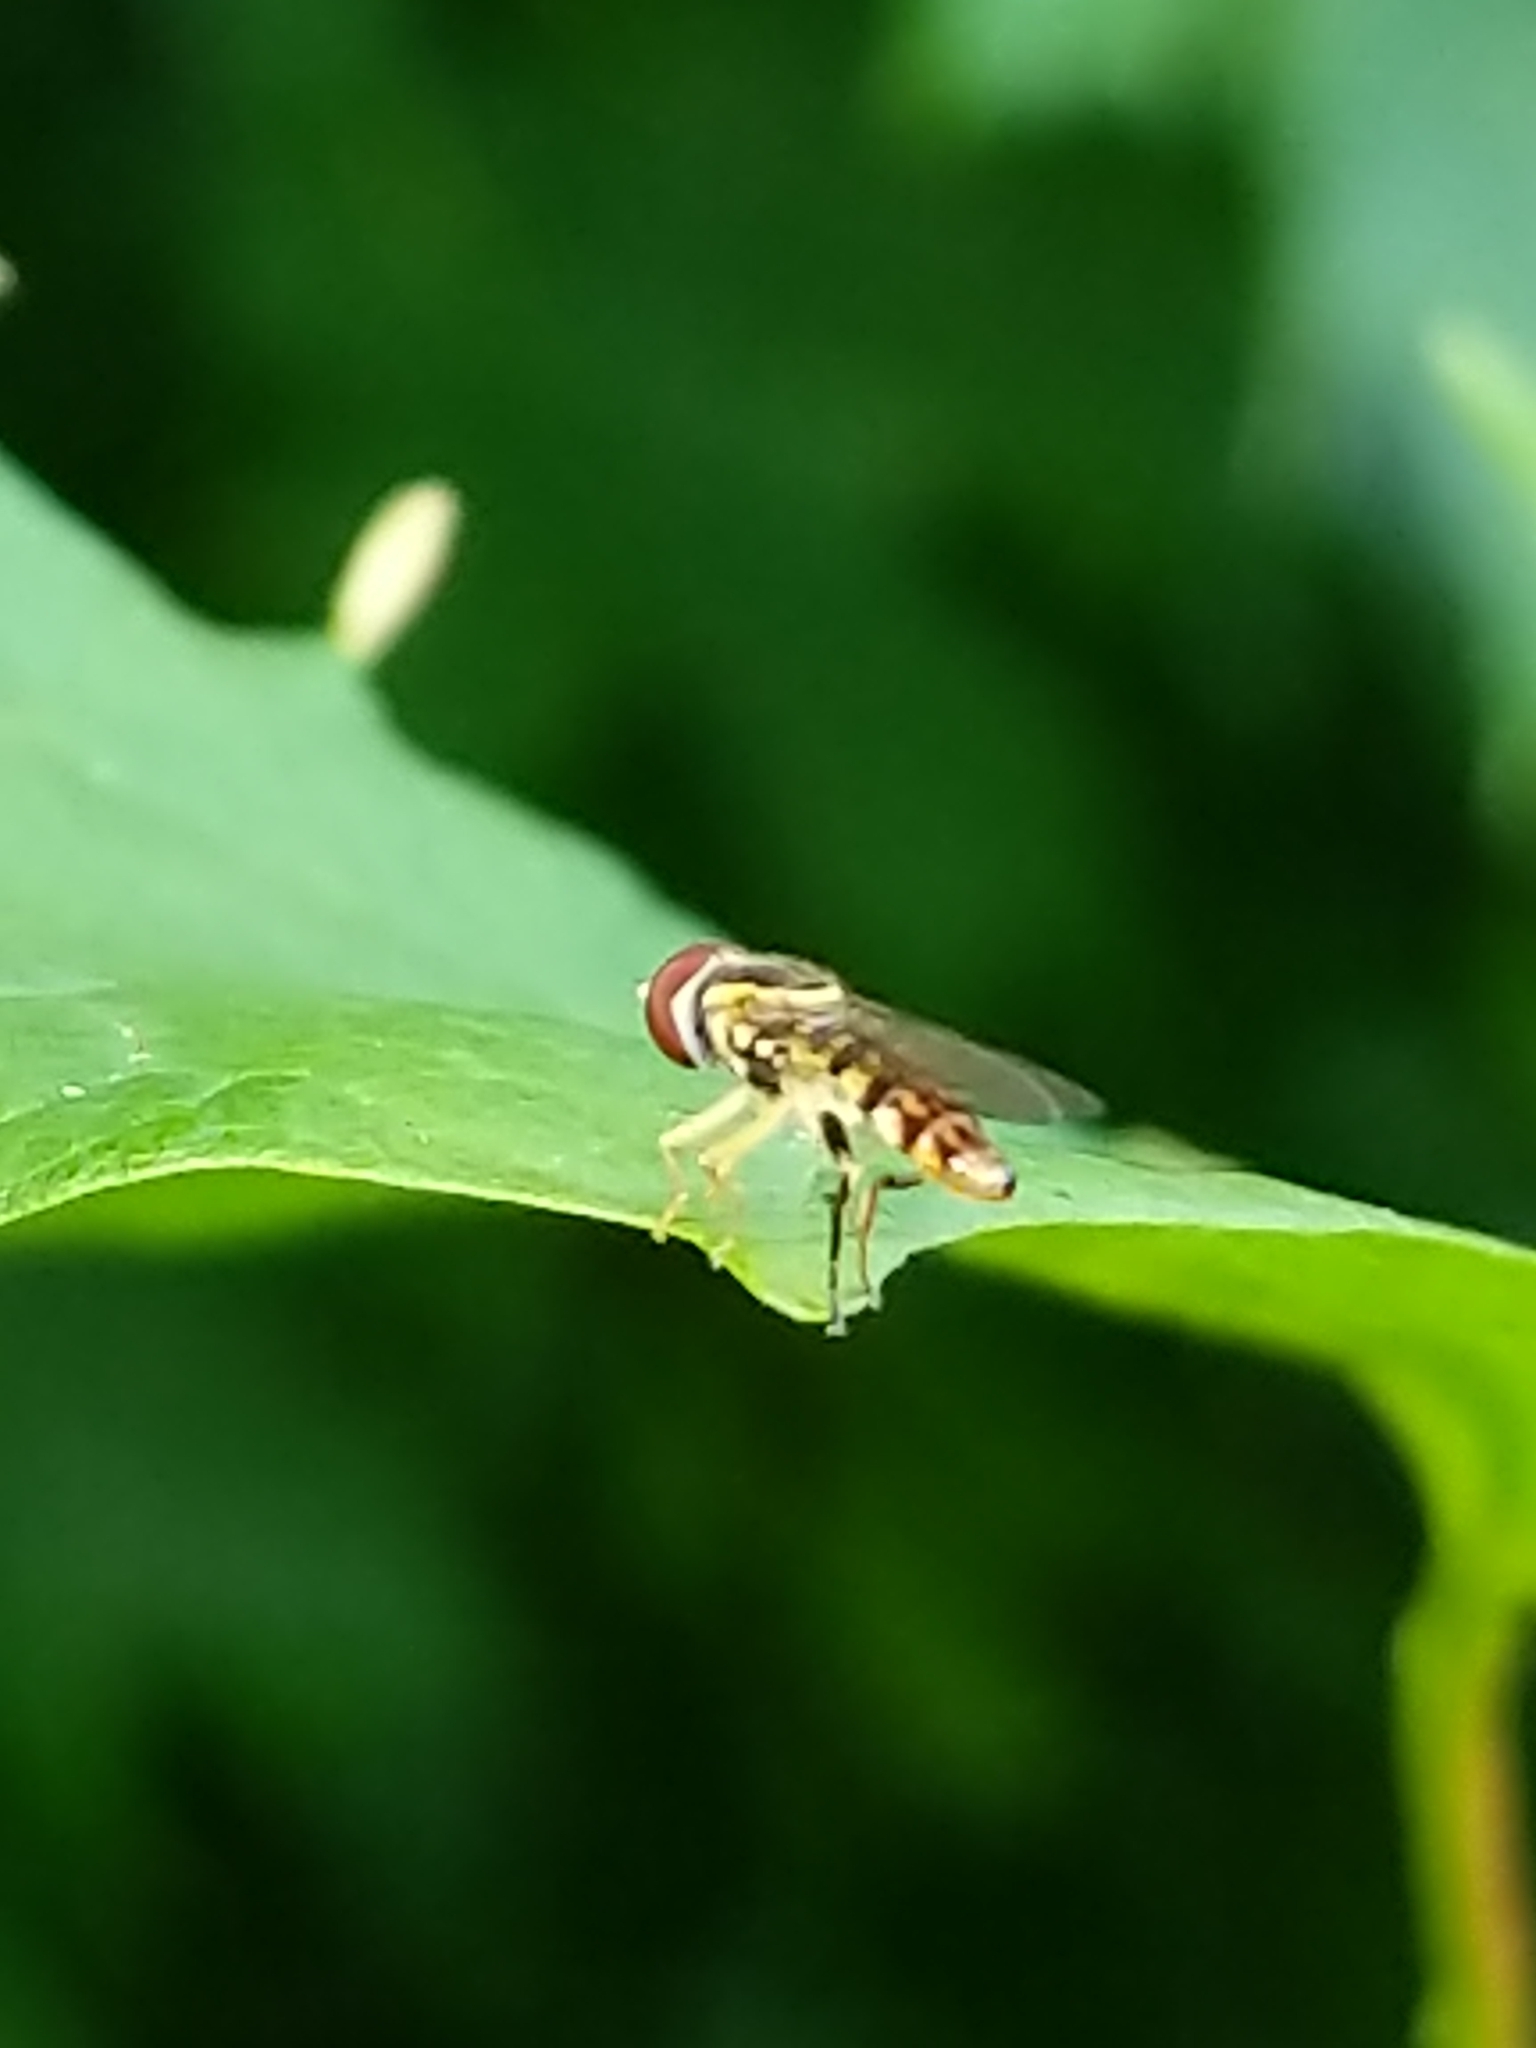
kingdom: Animalia
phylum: Arthropoda
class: Insecta
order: Diptera
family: Syrphidae
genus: Toxomerus
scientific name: Toxomerus geminatus
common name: Eastern calligrapher
